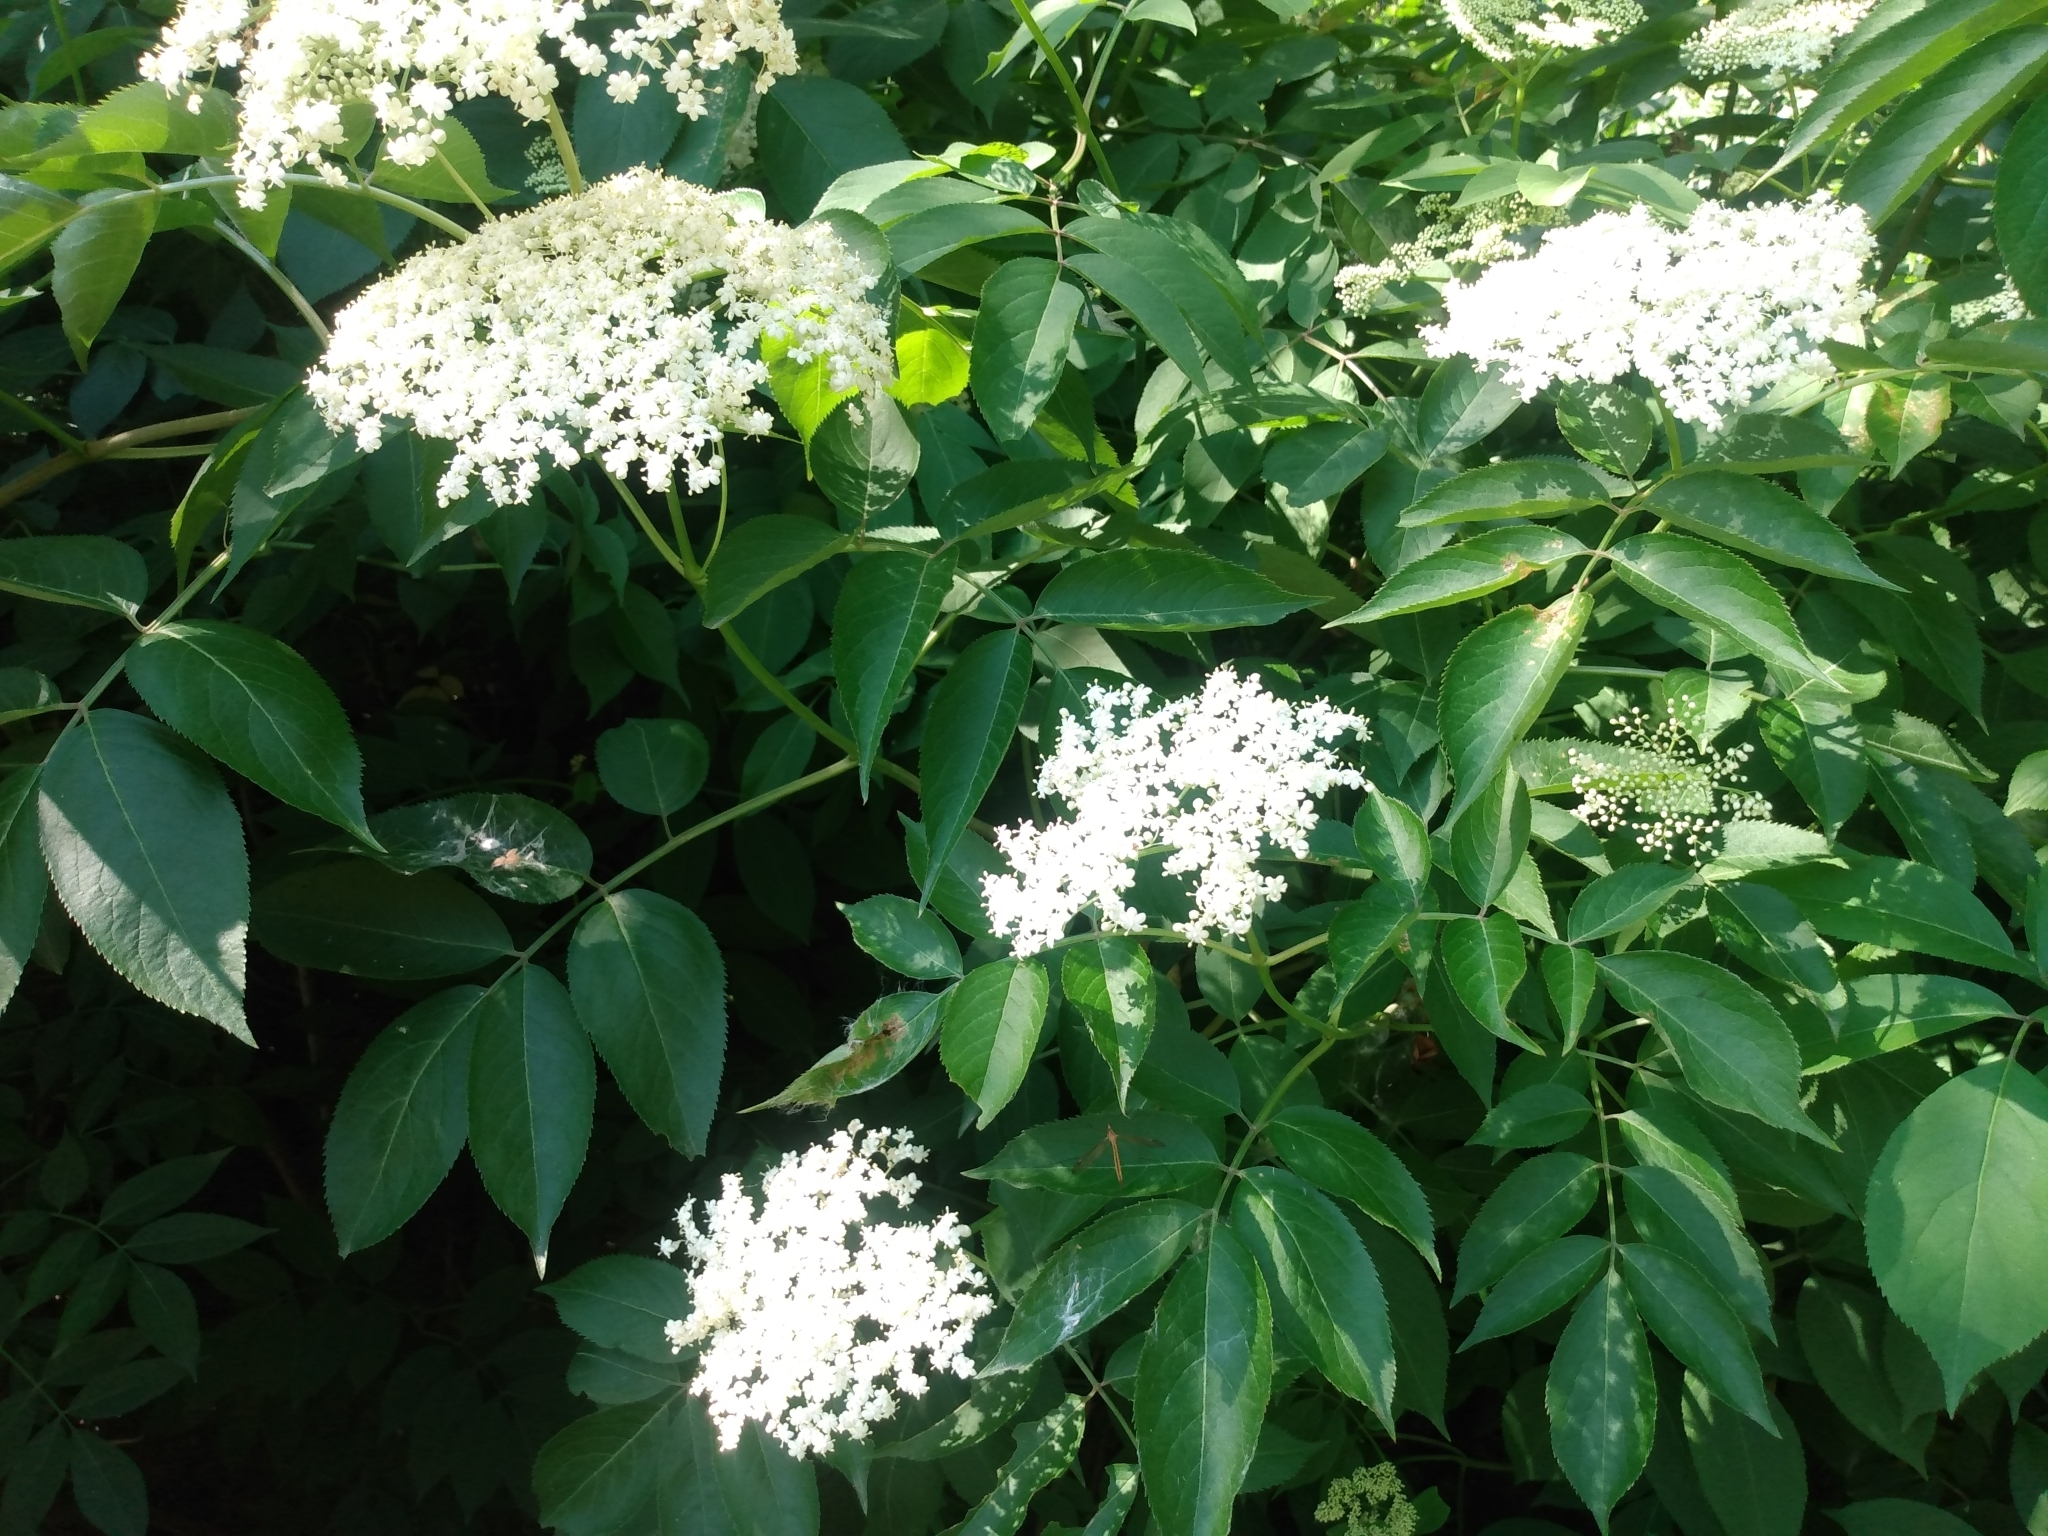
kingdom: Plantae
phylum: Tracheophyta
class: Magnoliopsida
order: Dipsacales
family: Viburnaceae
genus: Sambucus
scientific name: Sambucus canadensis
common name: American elder
